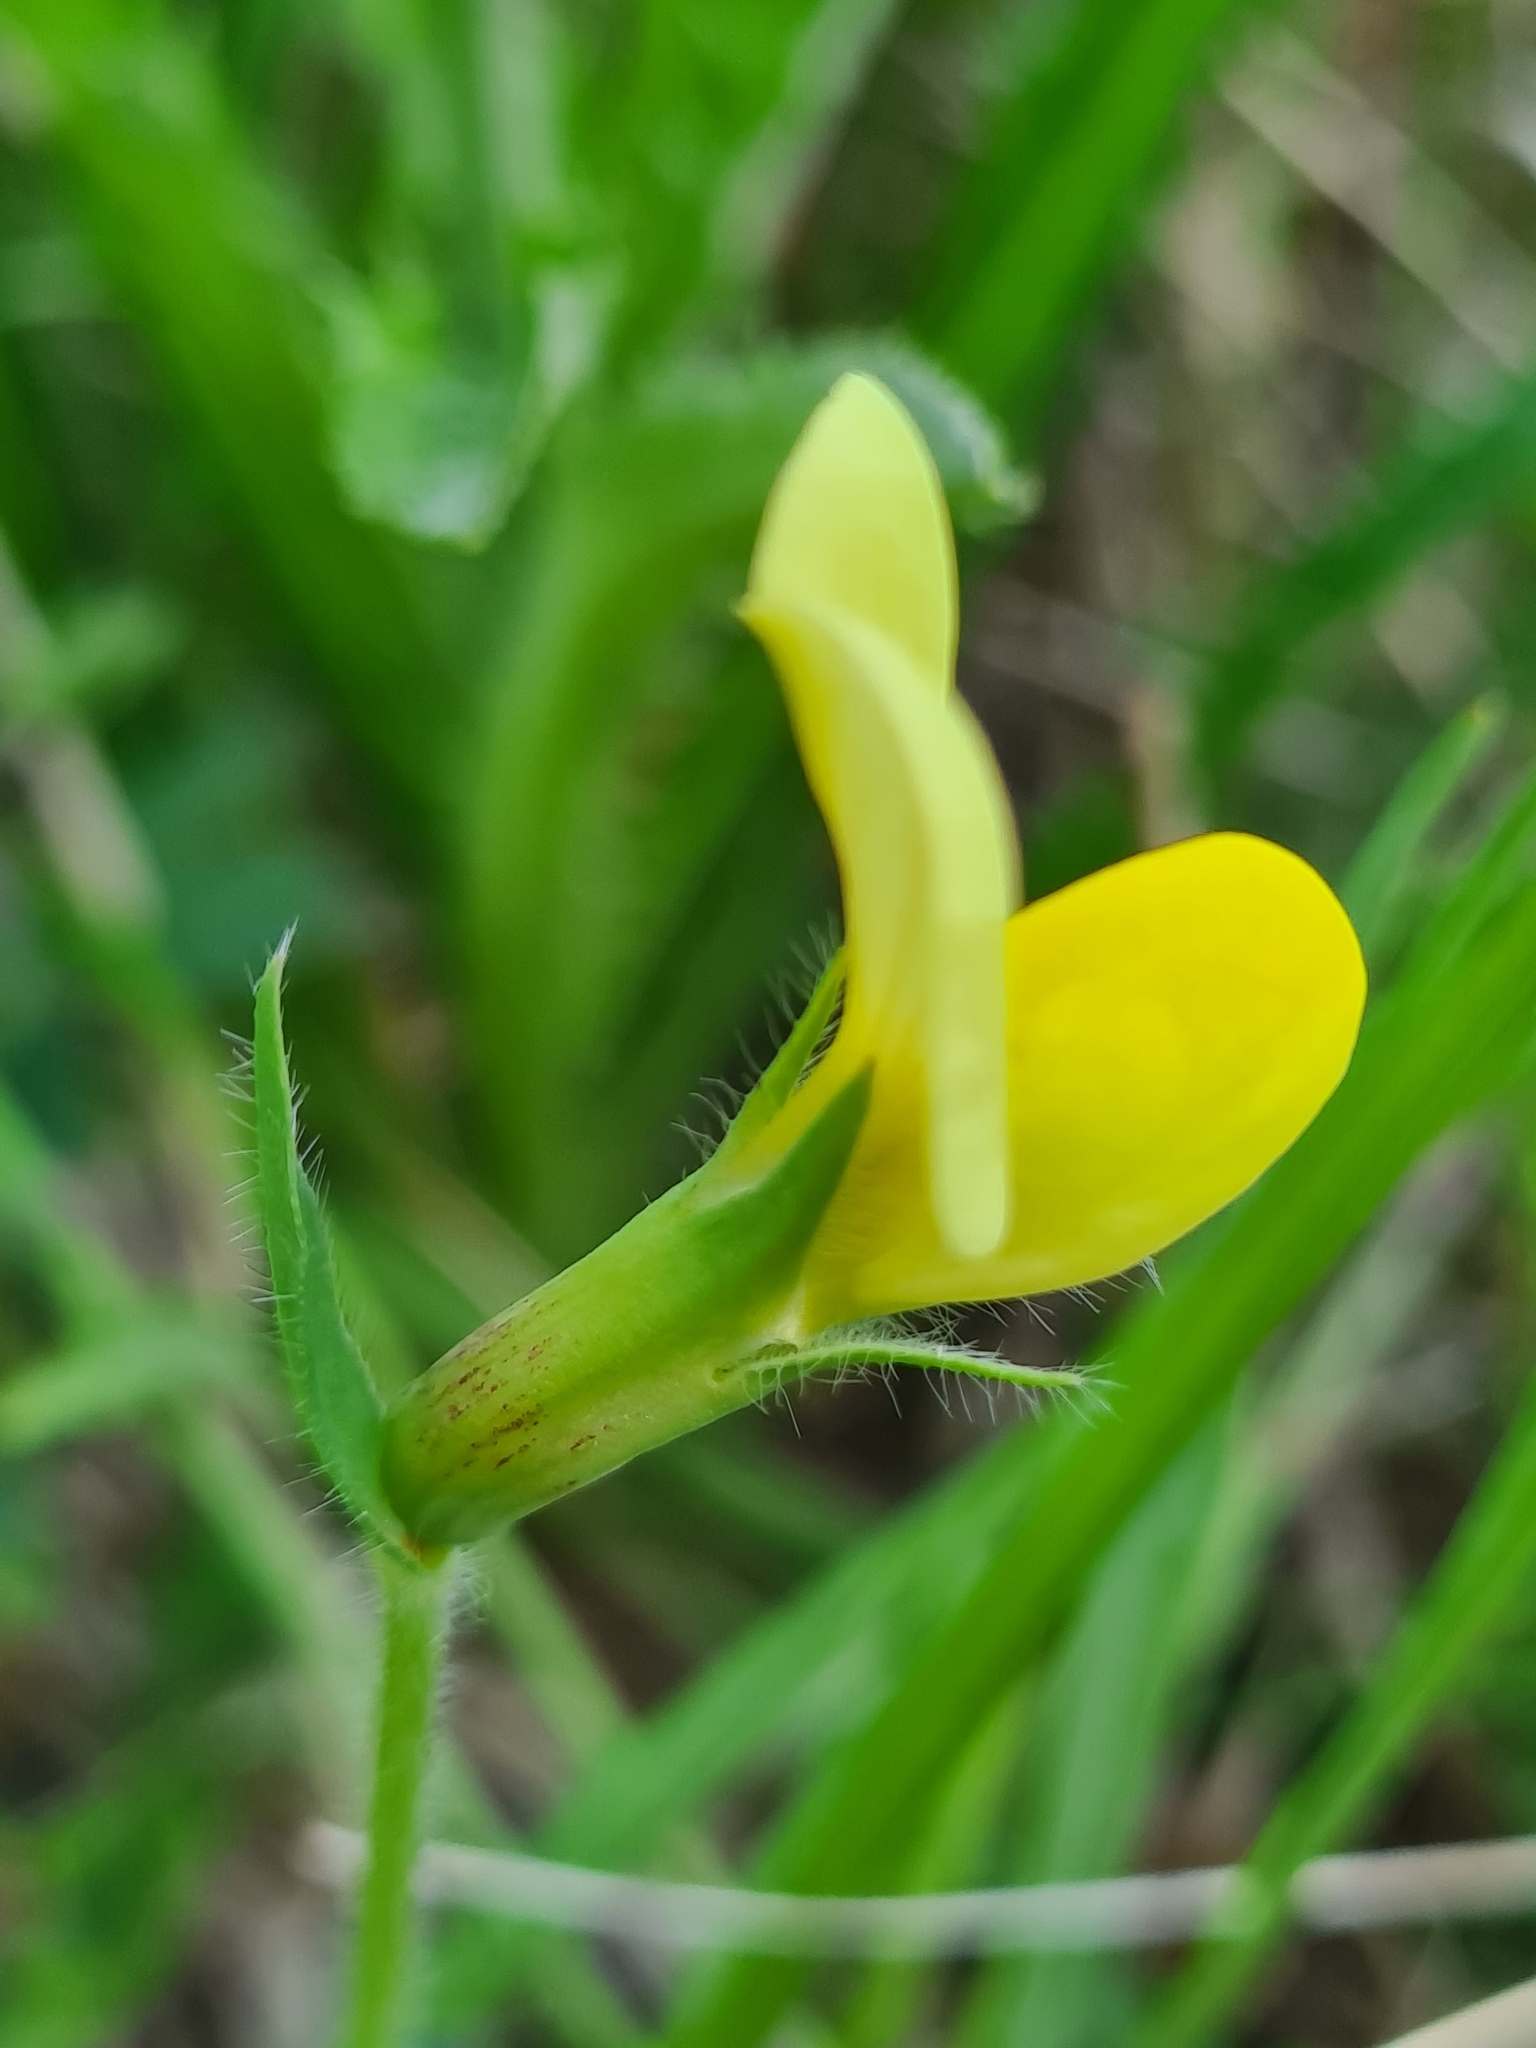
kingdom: Plantae
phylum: Tracheophyta
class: Magnoliopsida
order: Fabales
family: Fabaceae
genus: Lotus
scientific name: Lotus maritimus
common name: Dragon's-teeth
